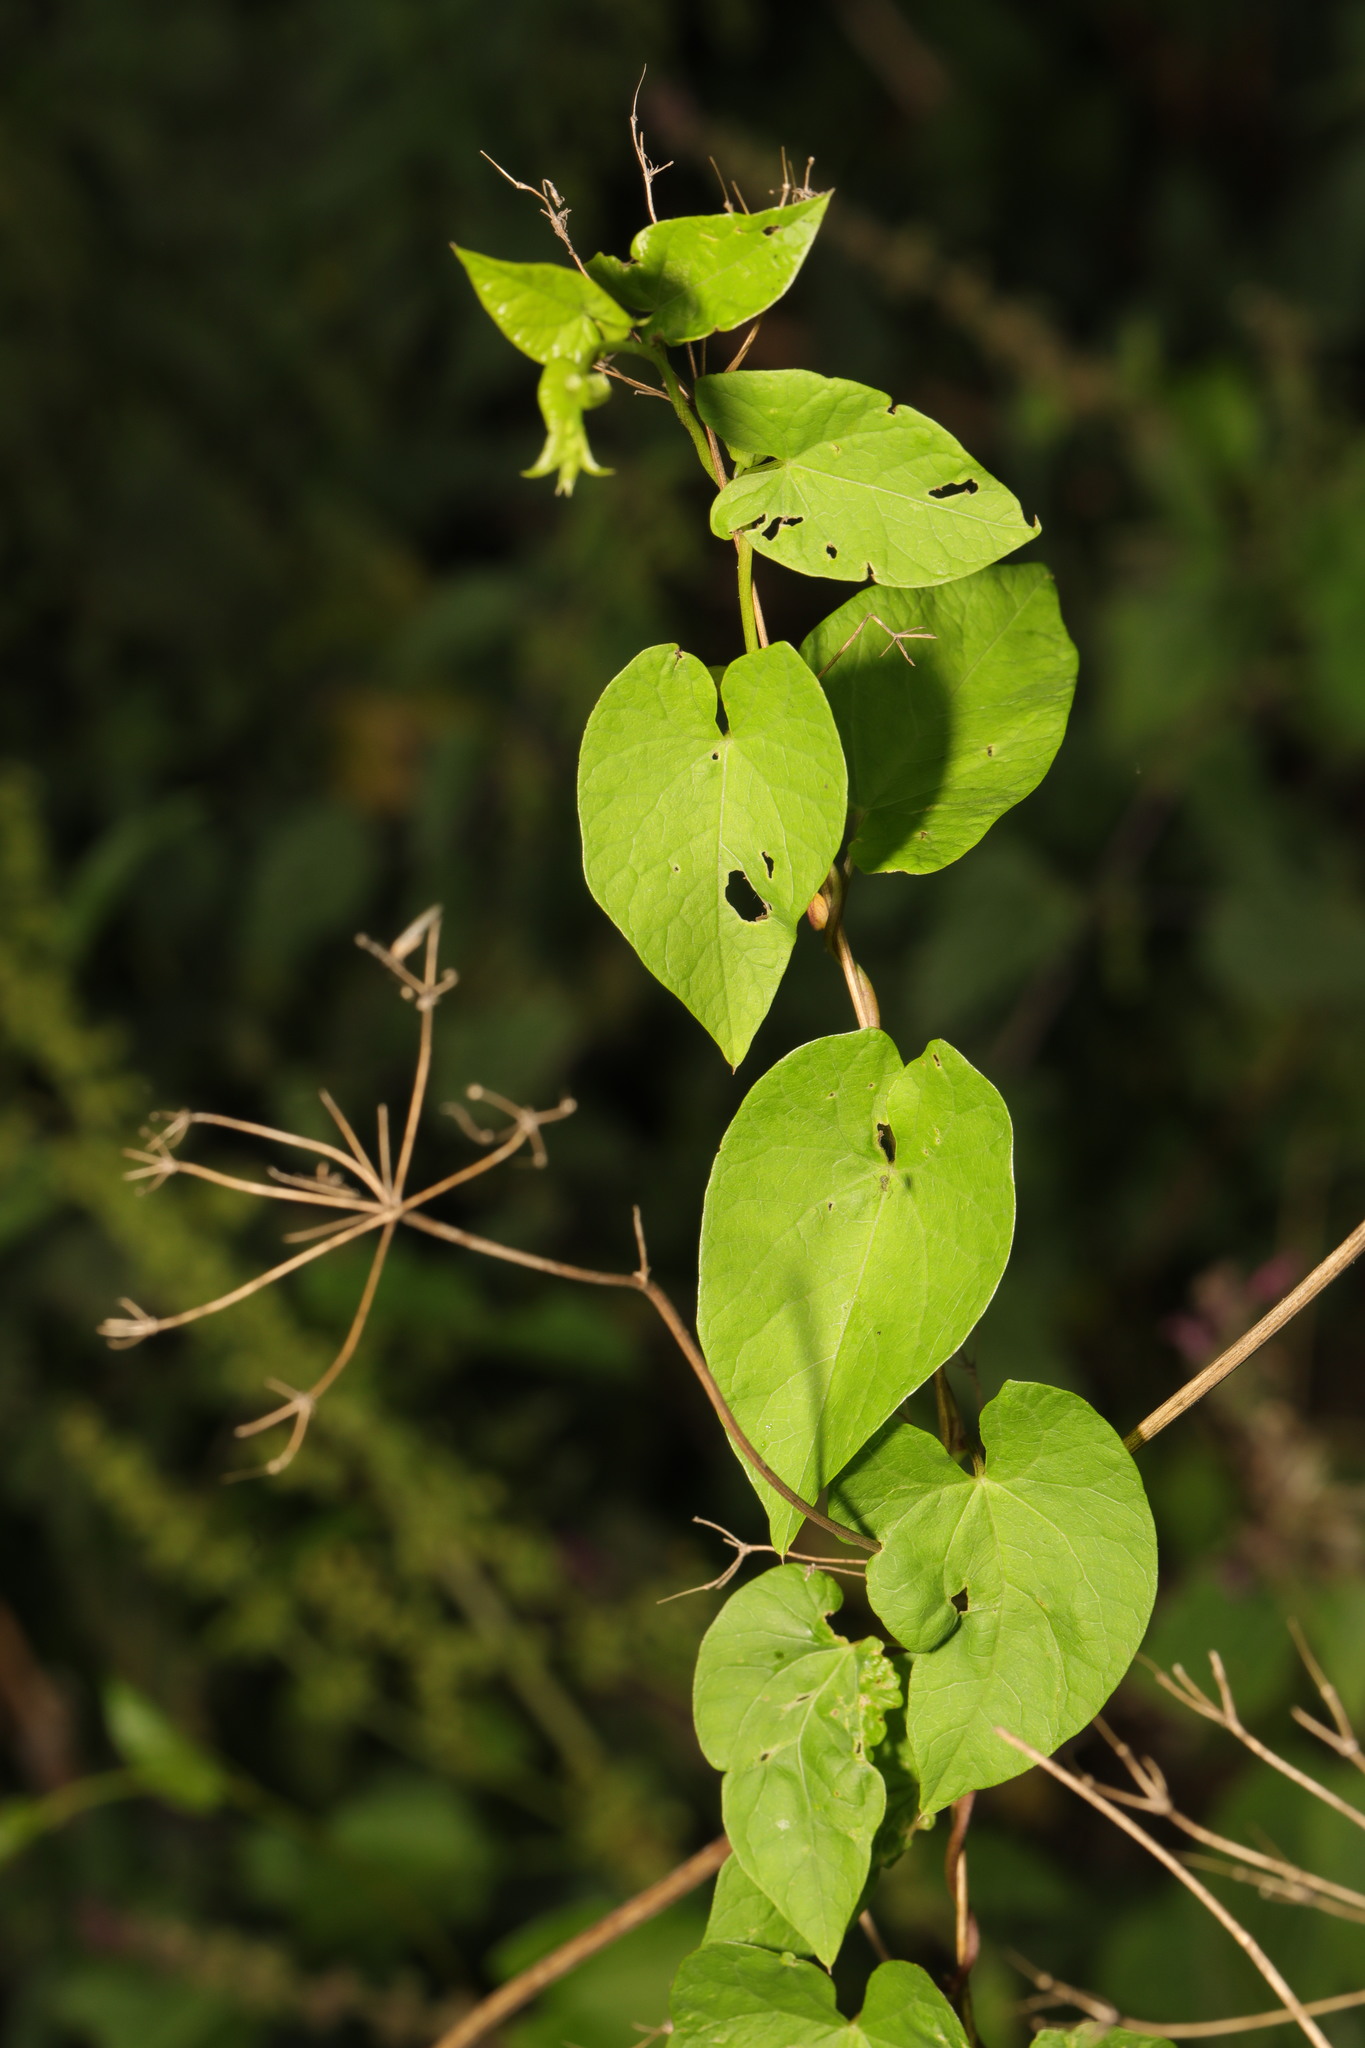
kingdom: Plantae
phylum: Tracheophyta
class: Magnoliopsida
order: Solanales
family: Convolvulaceae
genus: Calystegia
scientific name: Calystegia
